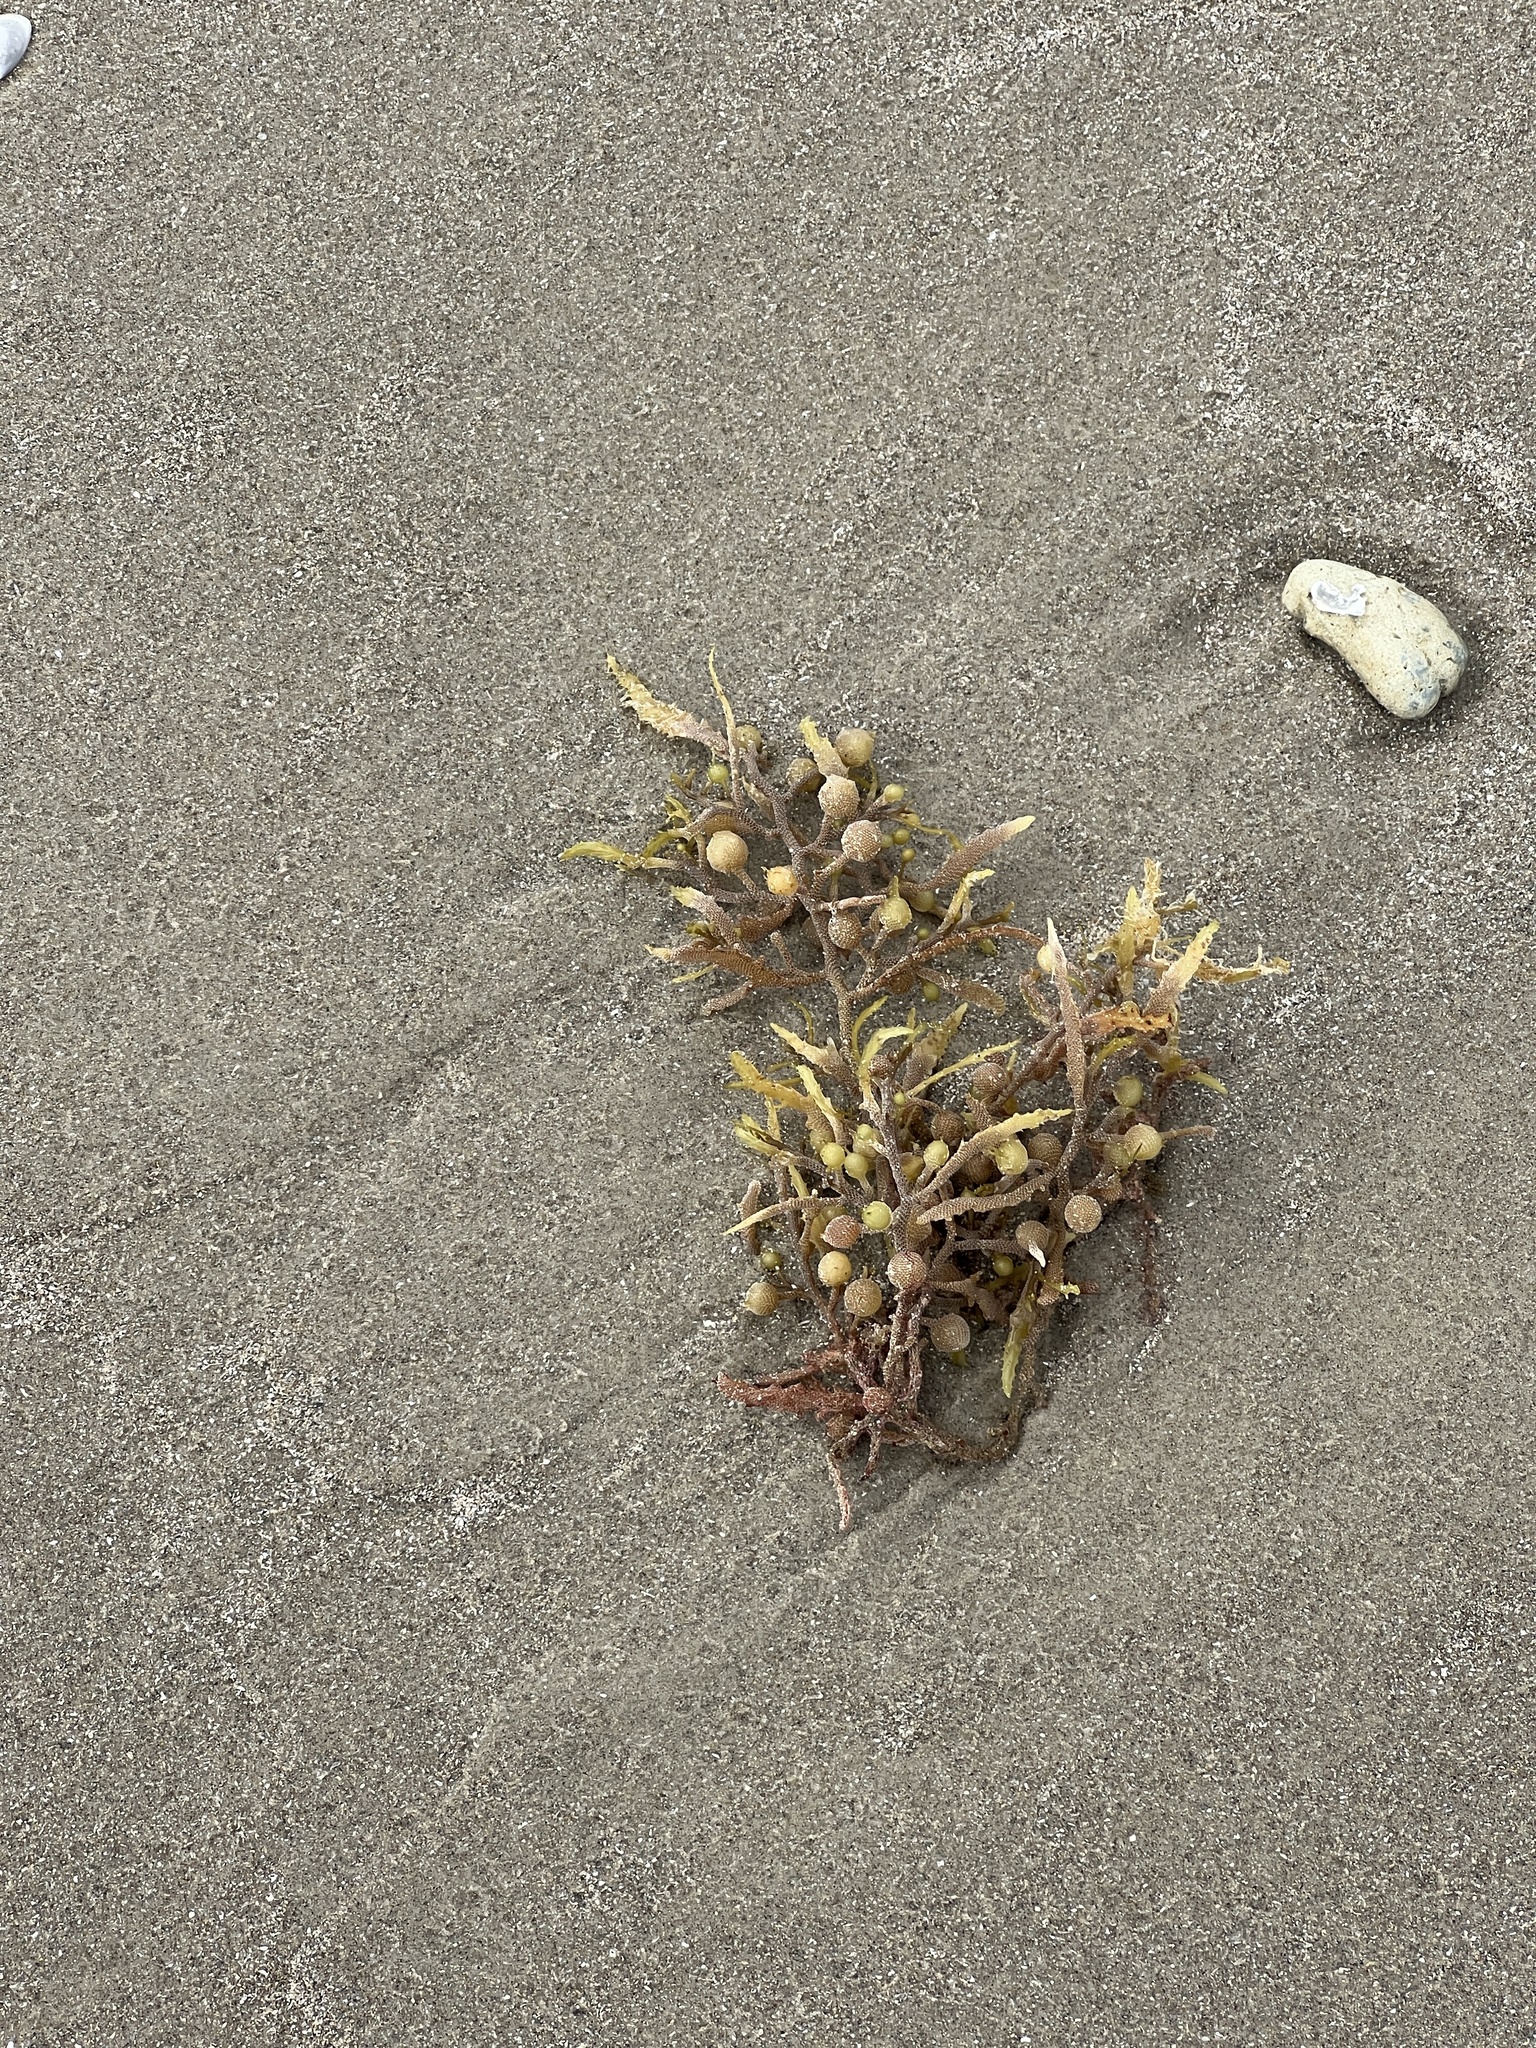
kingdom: Chromista
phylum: Ochrophyta
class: Phaeophyceae
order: Fucales
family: Sargassaceae
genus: Sargassum
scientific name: Sargassum fluitans
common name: Sargassum seaweed
